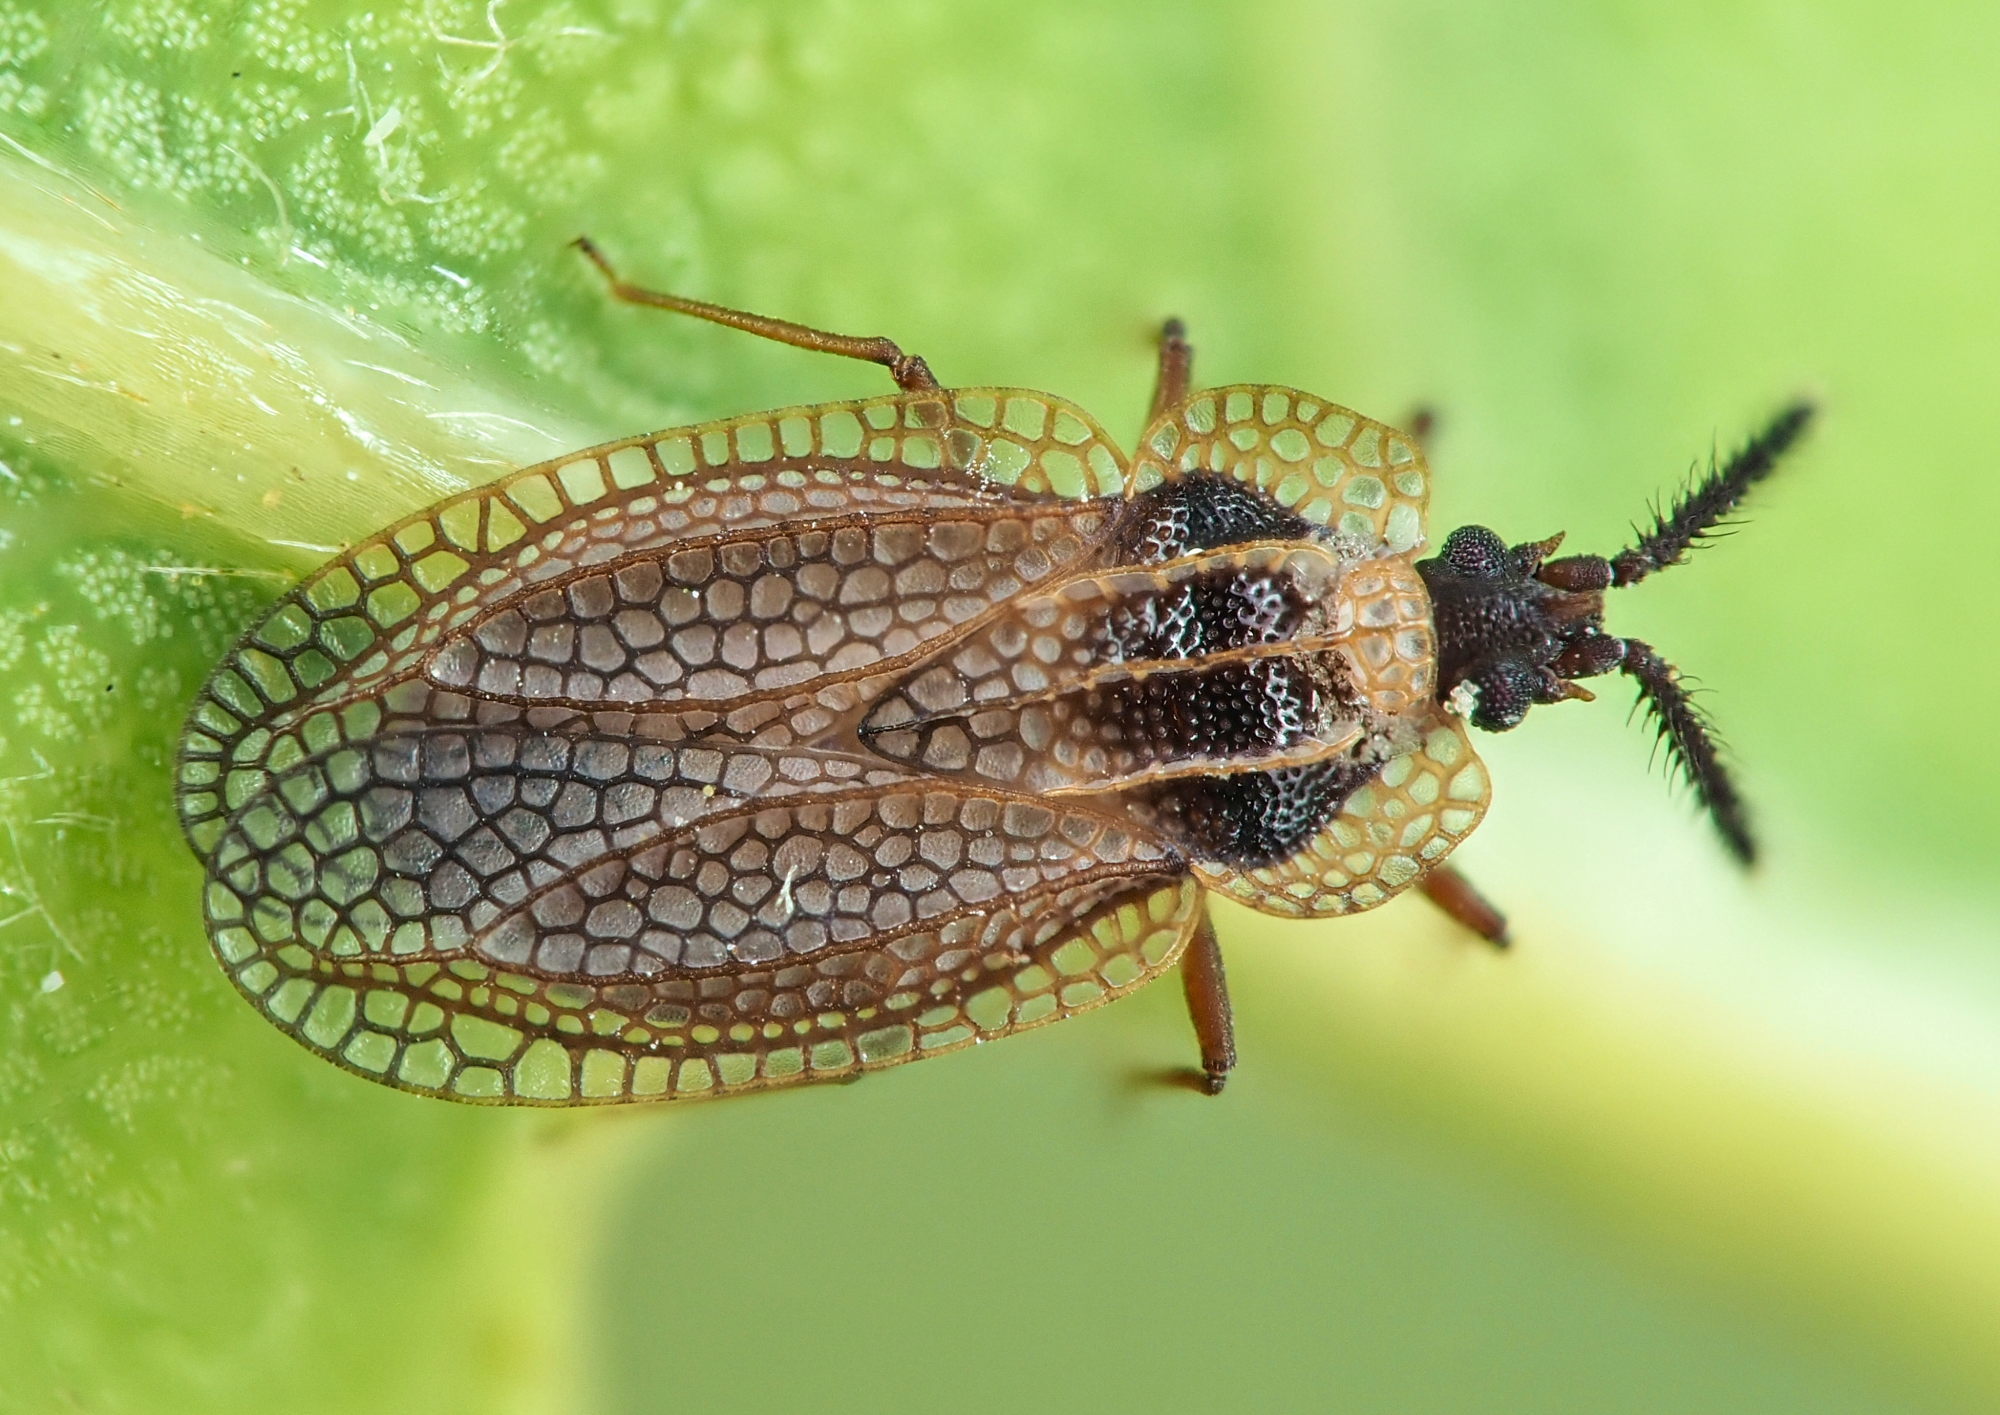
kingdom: Animalia
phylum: Arthropoda
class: Insecta
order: Hemiptera
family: Tingidae
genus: Dictyonota
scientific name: Dictyonota tricornis
